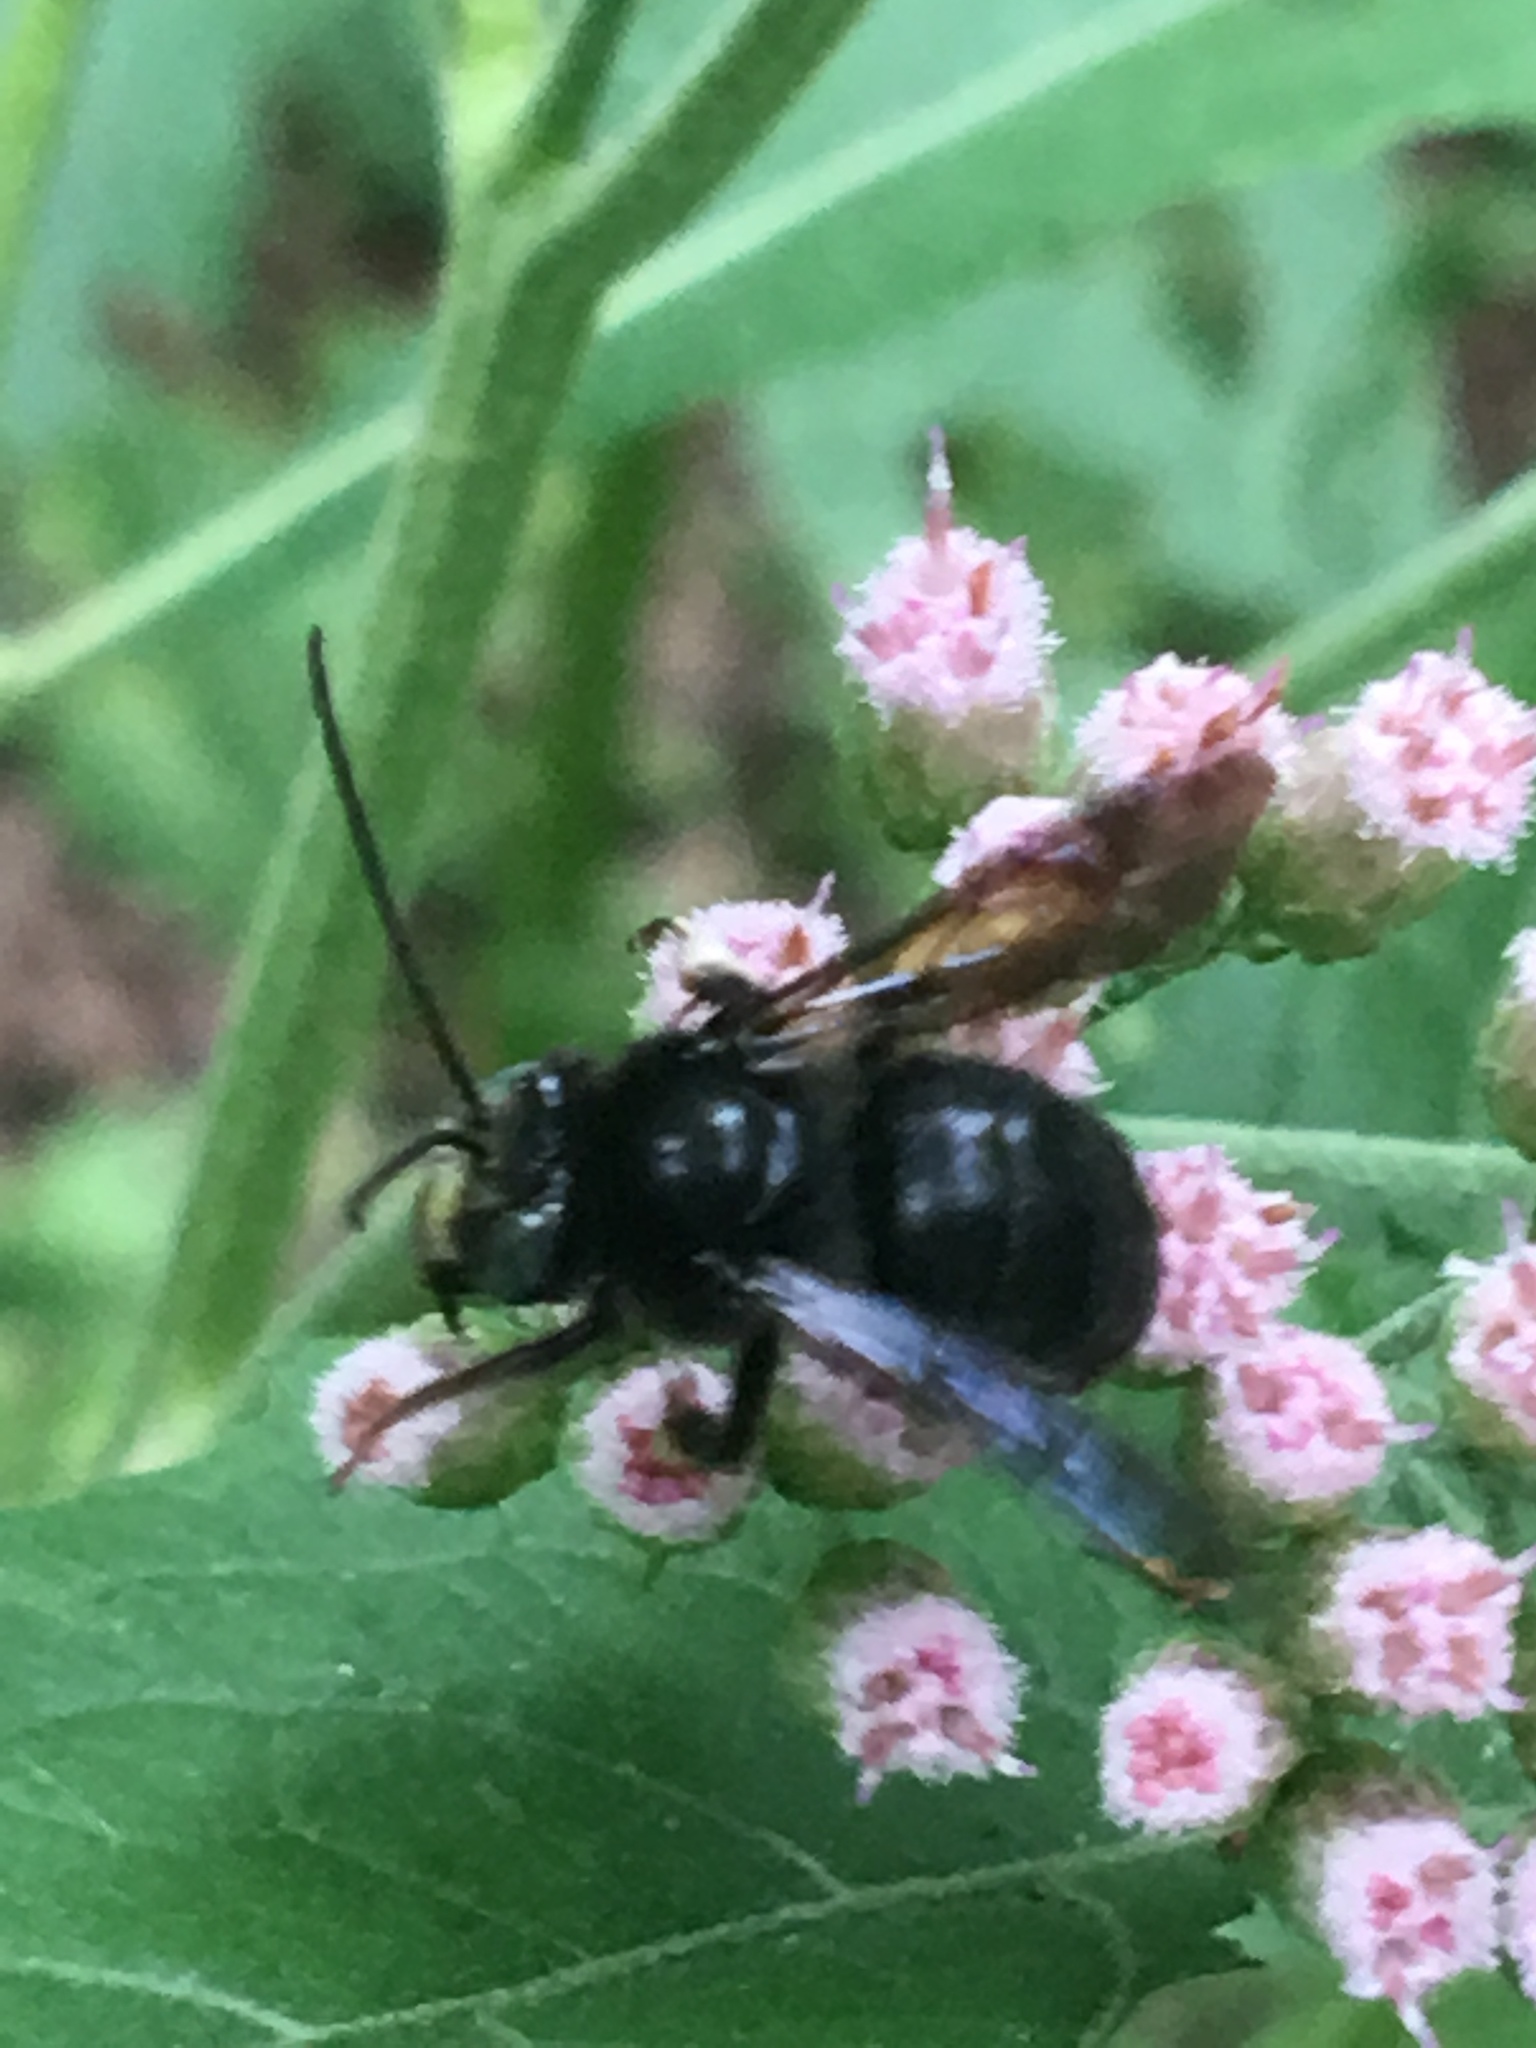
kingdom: Animalia
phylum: Arthropoda
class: Insecta
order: Hymenoptera
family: Apidae
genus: Melissodes
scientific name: Melissodes bimaculatus
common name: Two-spotted long-horned bee
